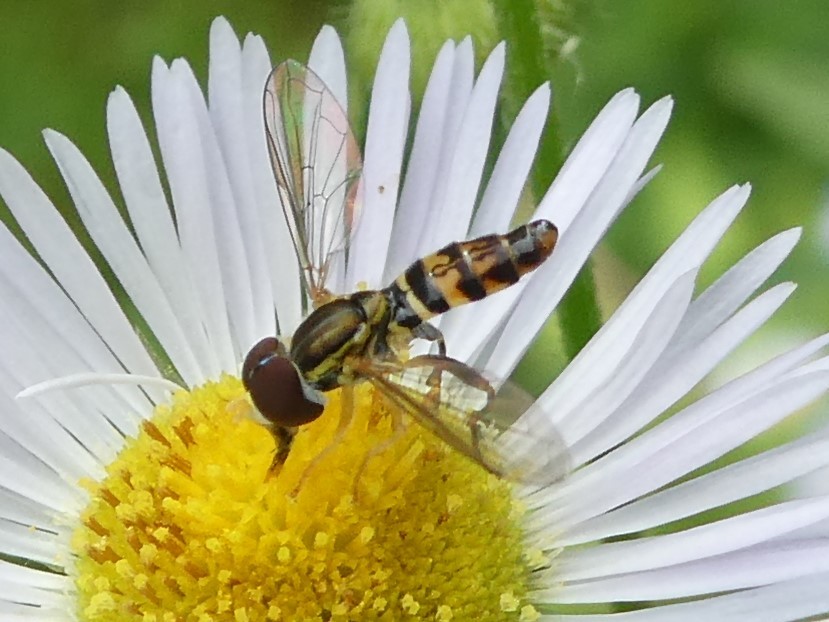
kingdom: Animalia
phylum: Arthropoda
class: Insecta
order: Diptera
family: Syrphidae
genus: Toxomerus
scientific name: Toxomerus geminatus
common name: Eastern calligrapher
